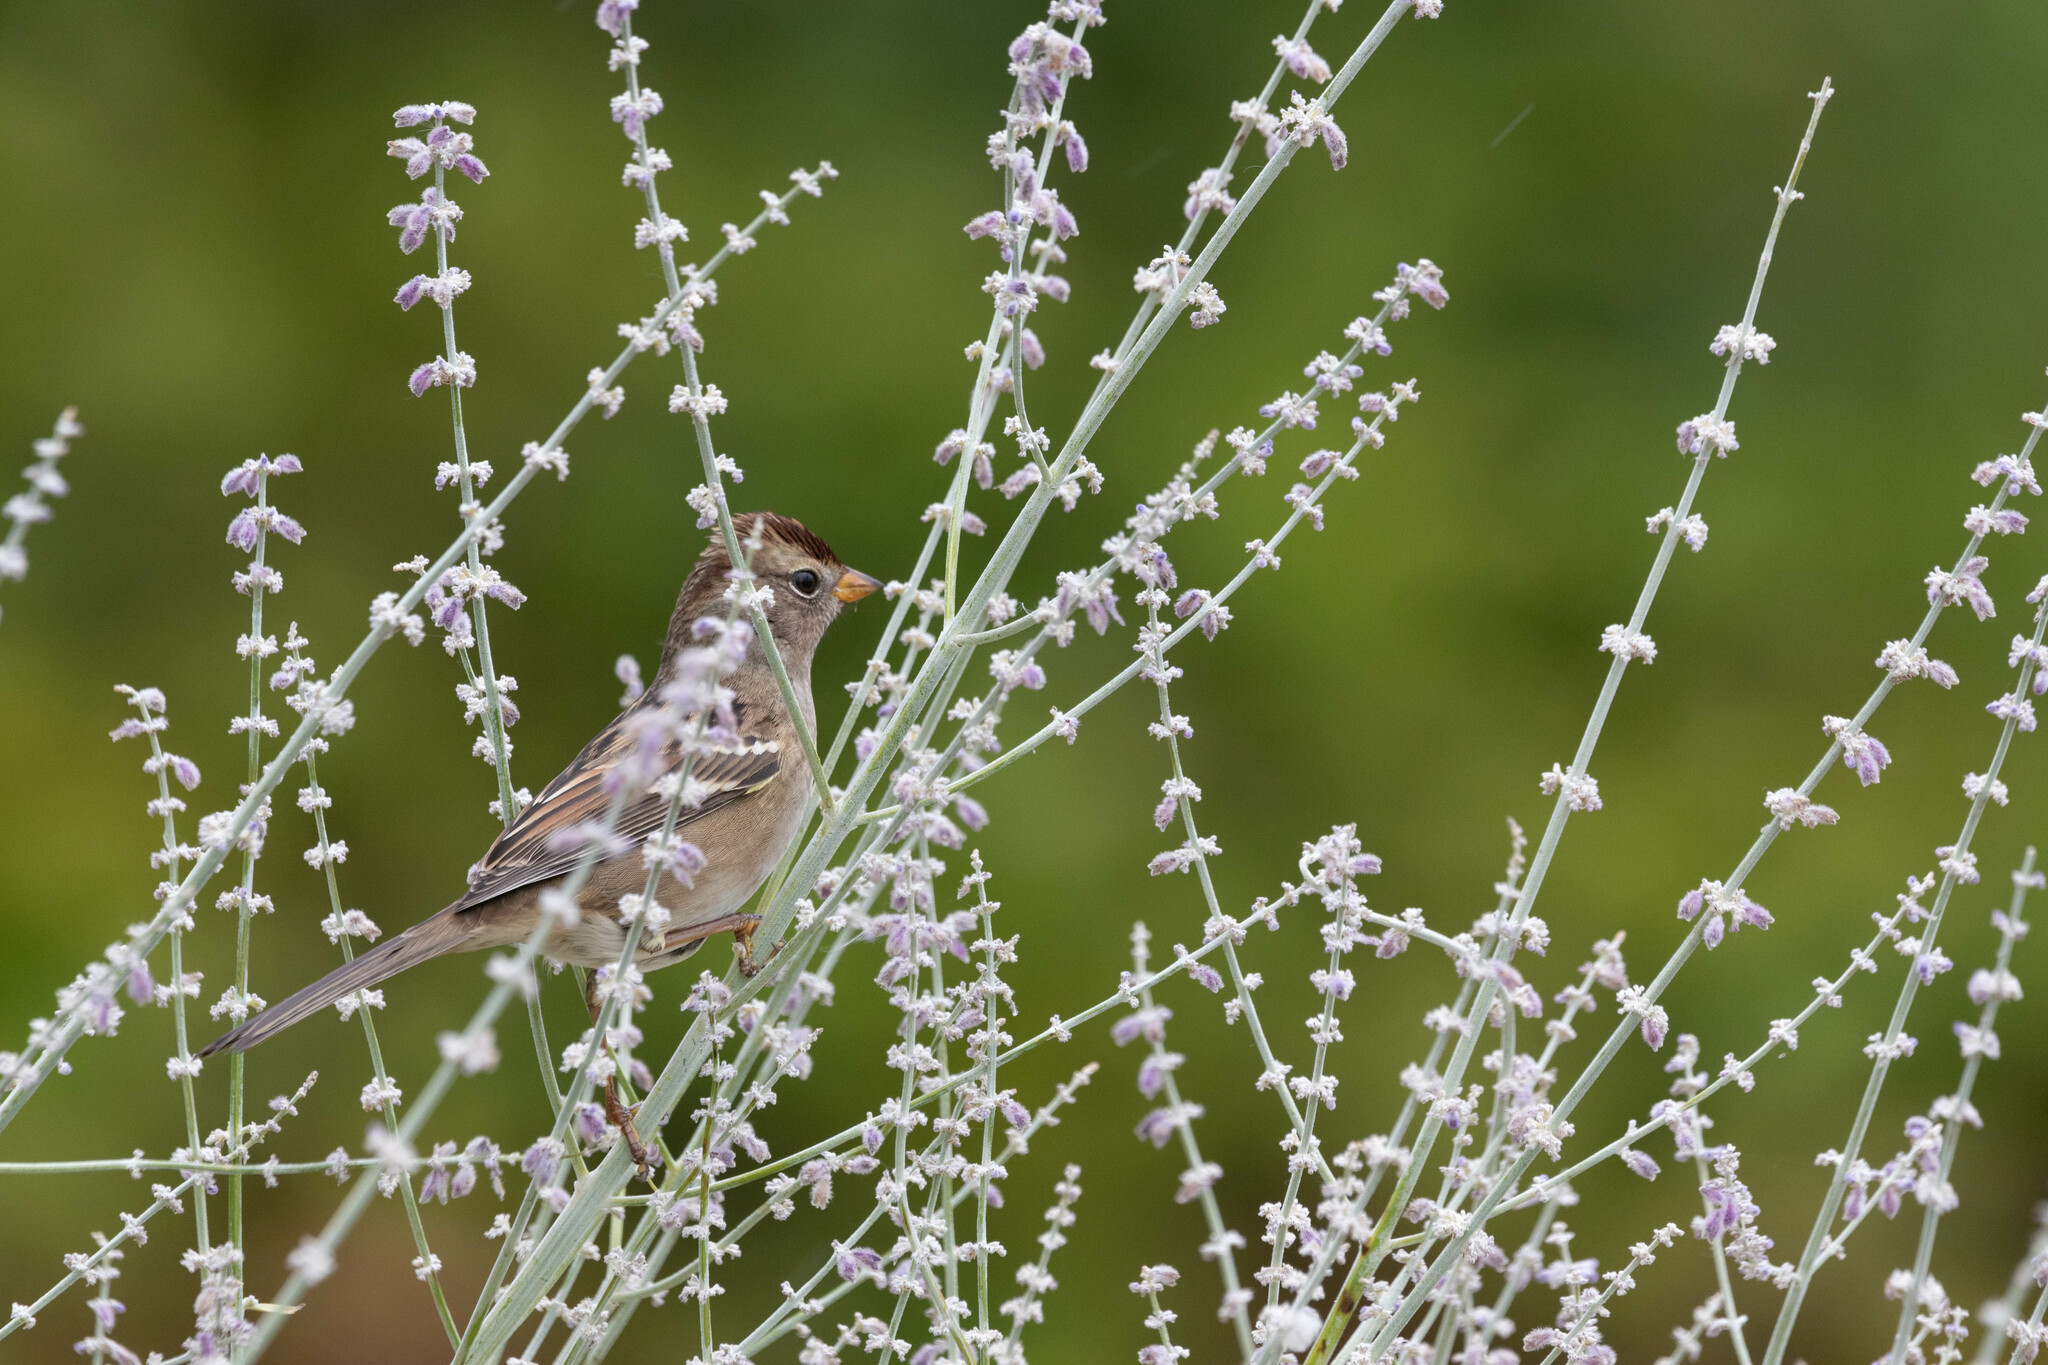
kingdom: Animalia
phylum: Chordata
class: Aves
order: Passeriformes
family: Passerellidae
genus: Zonotrichia
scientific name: Zonotrichia leucophrys
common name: White-crowned sparrow
